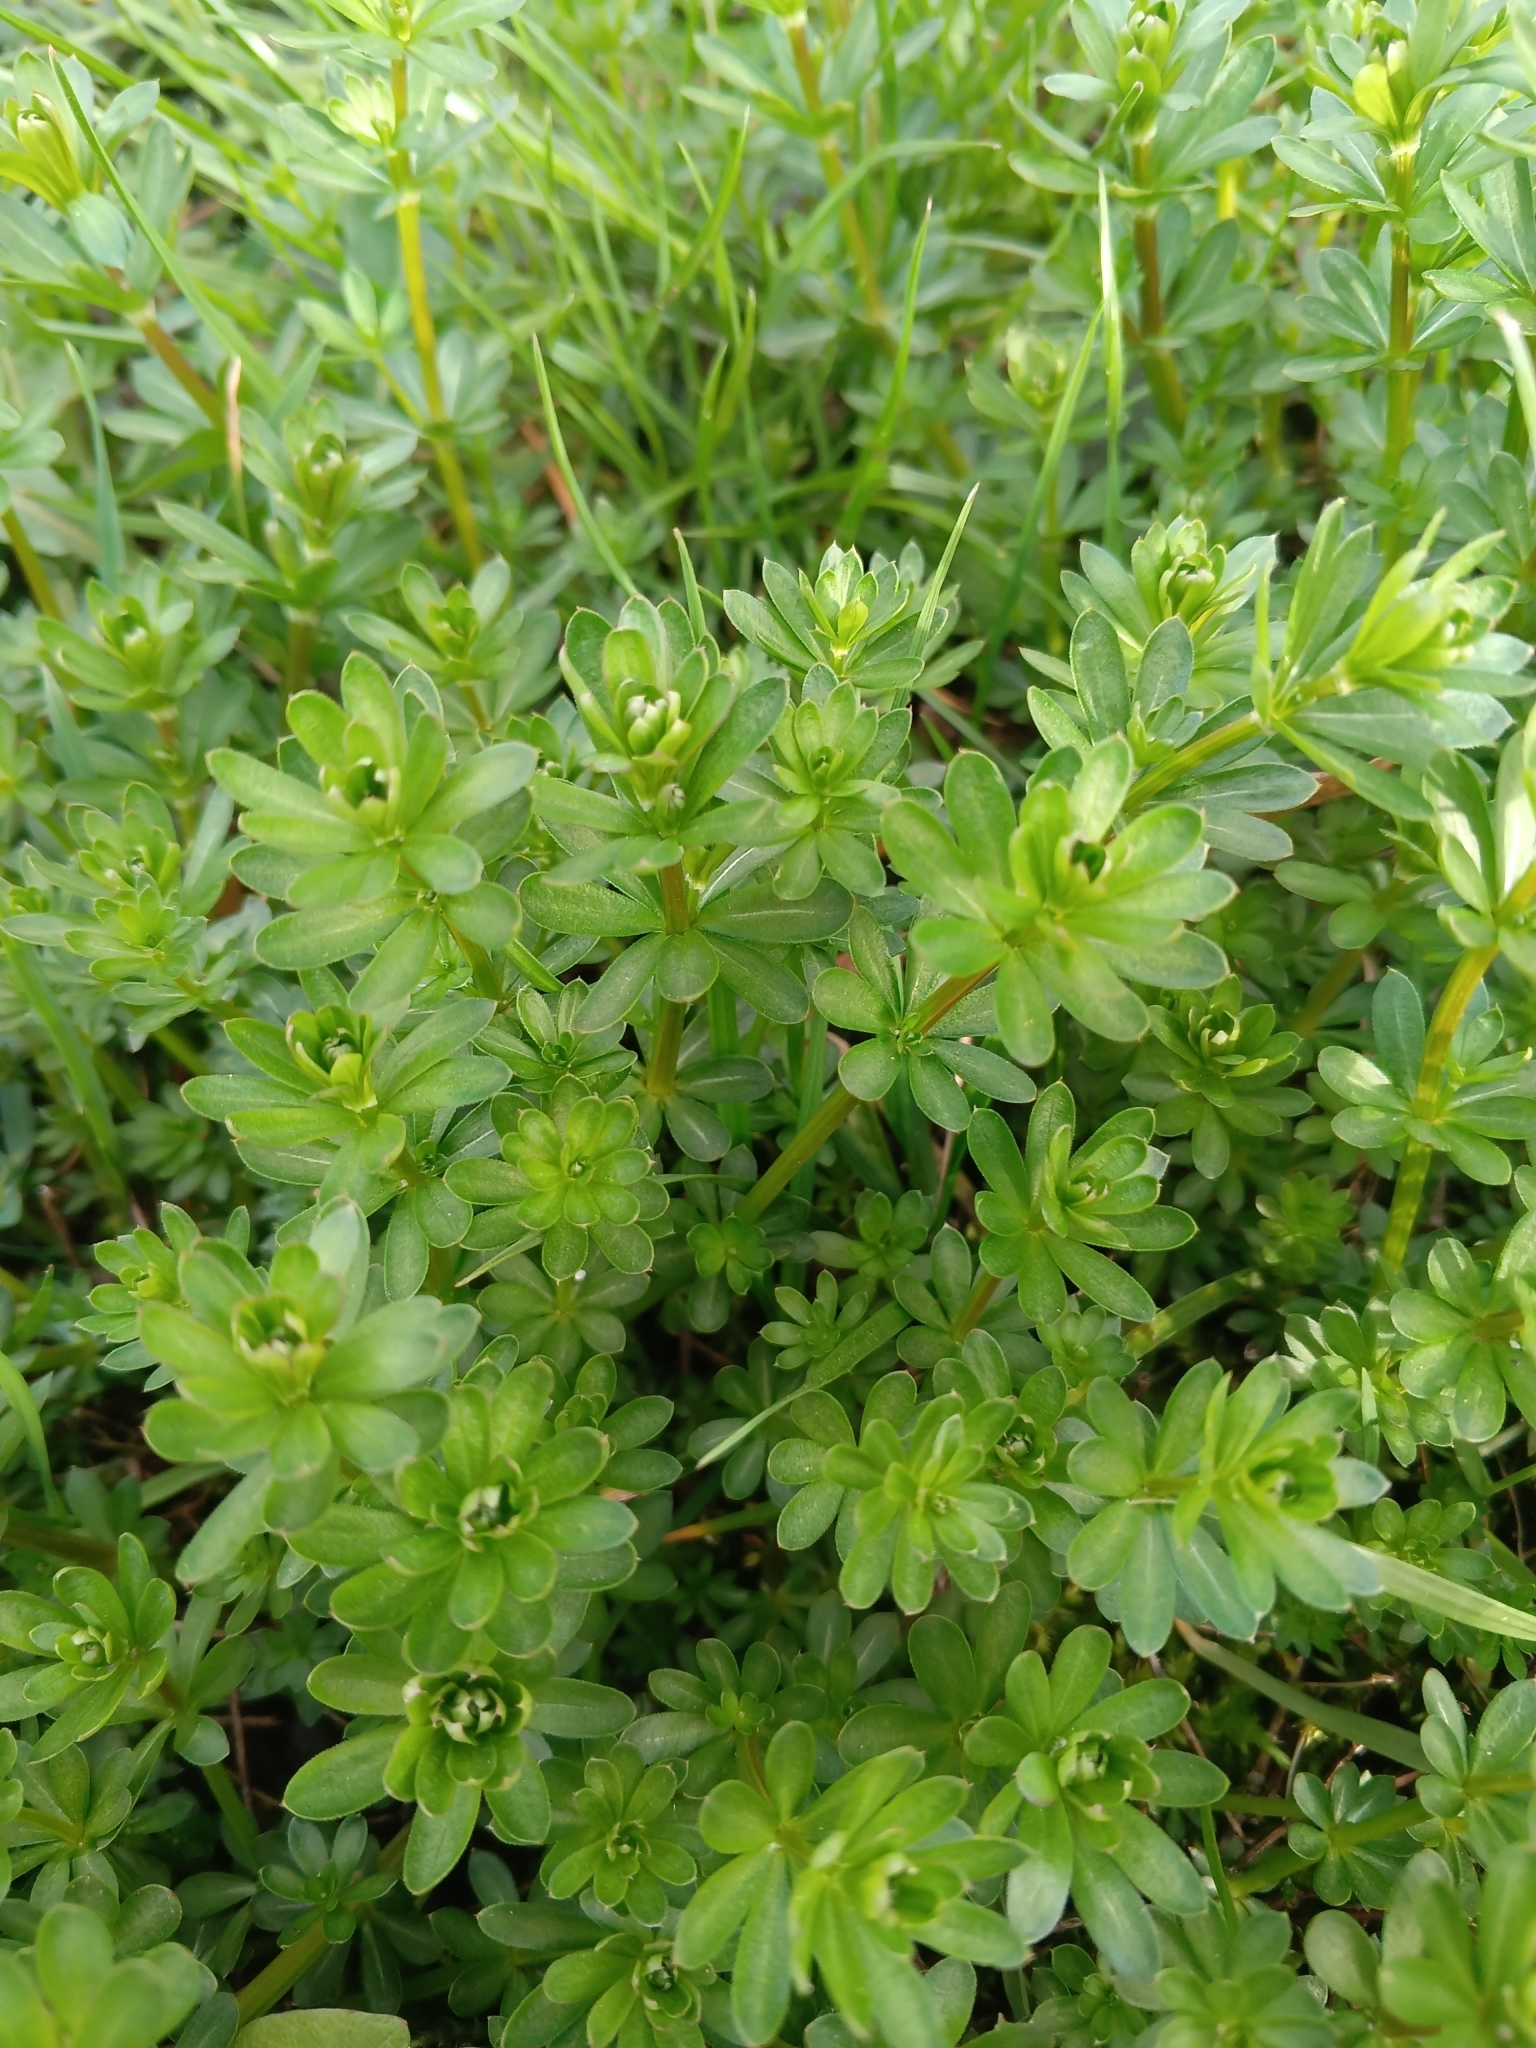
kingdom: Plantae
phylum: Tracheophyta
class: Magnoliopsida
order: Gentianales
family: Rubiaceae
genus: Galium
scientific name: Galium mollugo
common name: Hedge bedstraw
